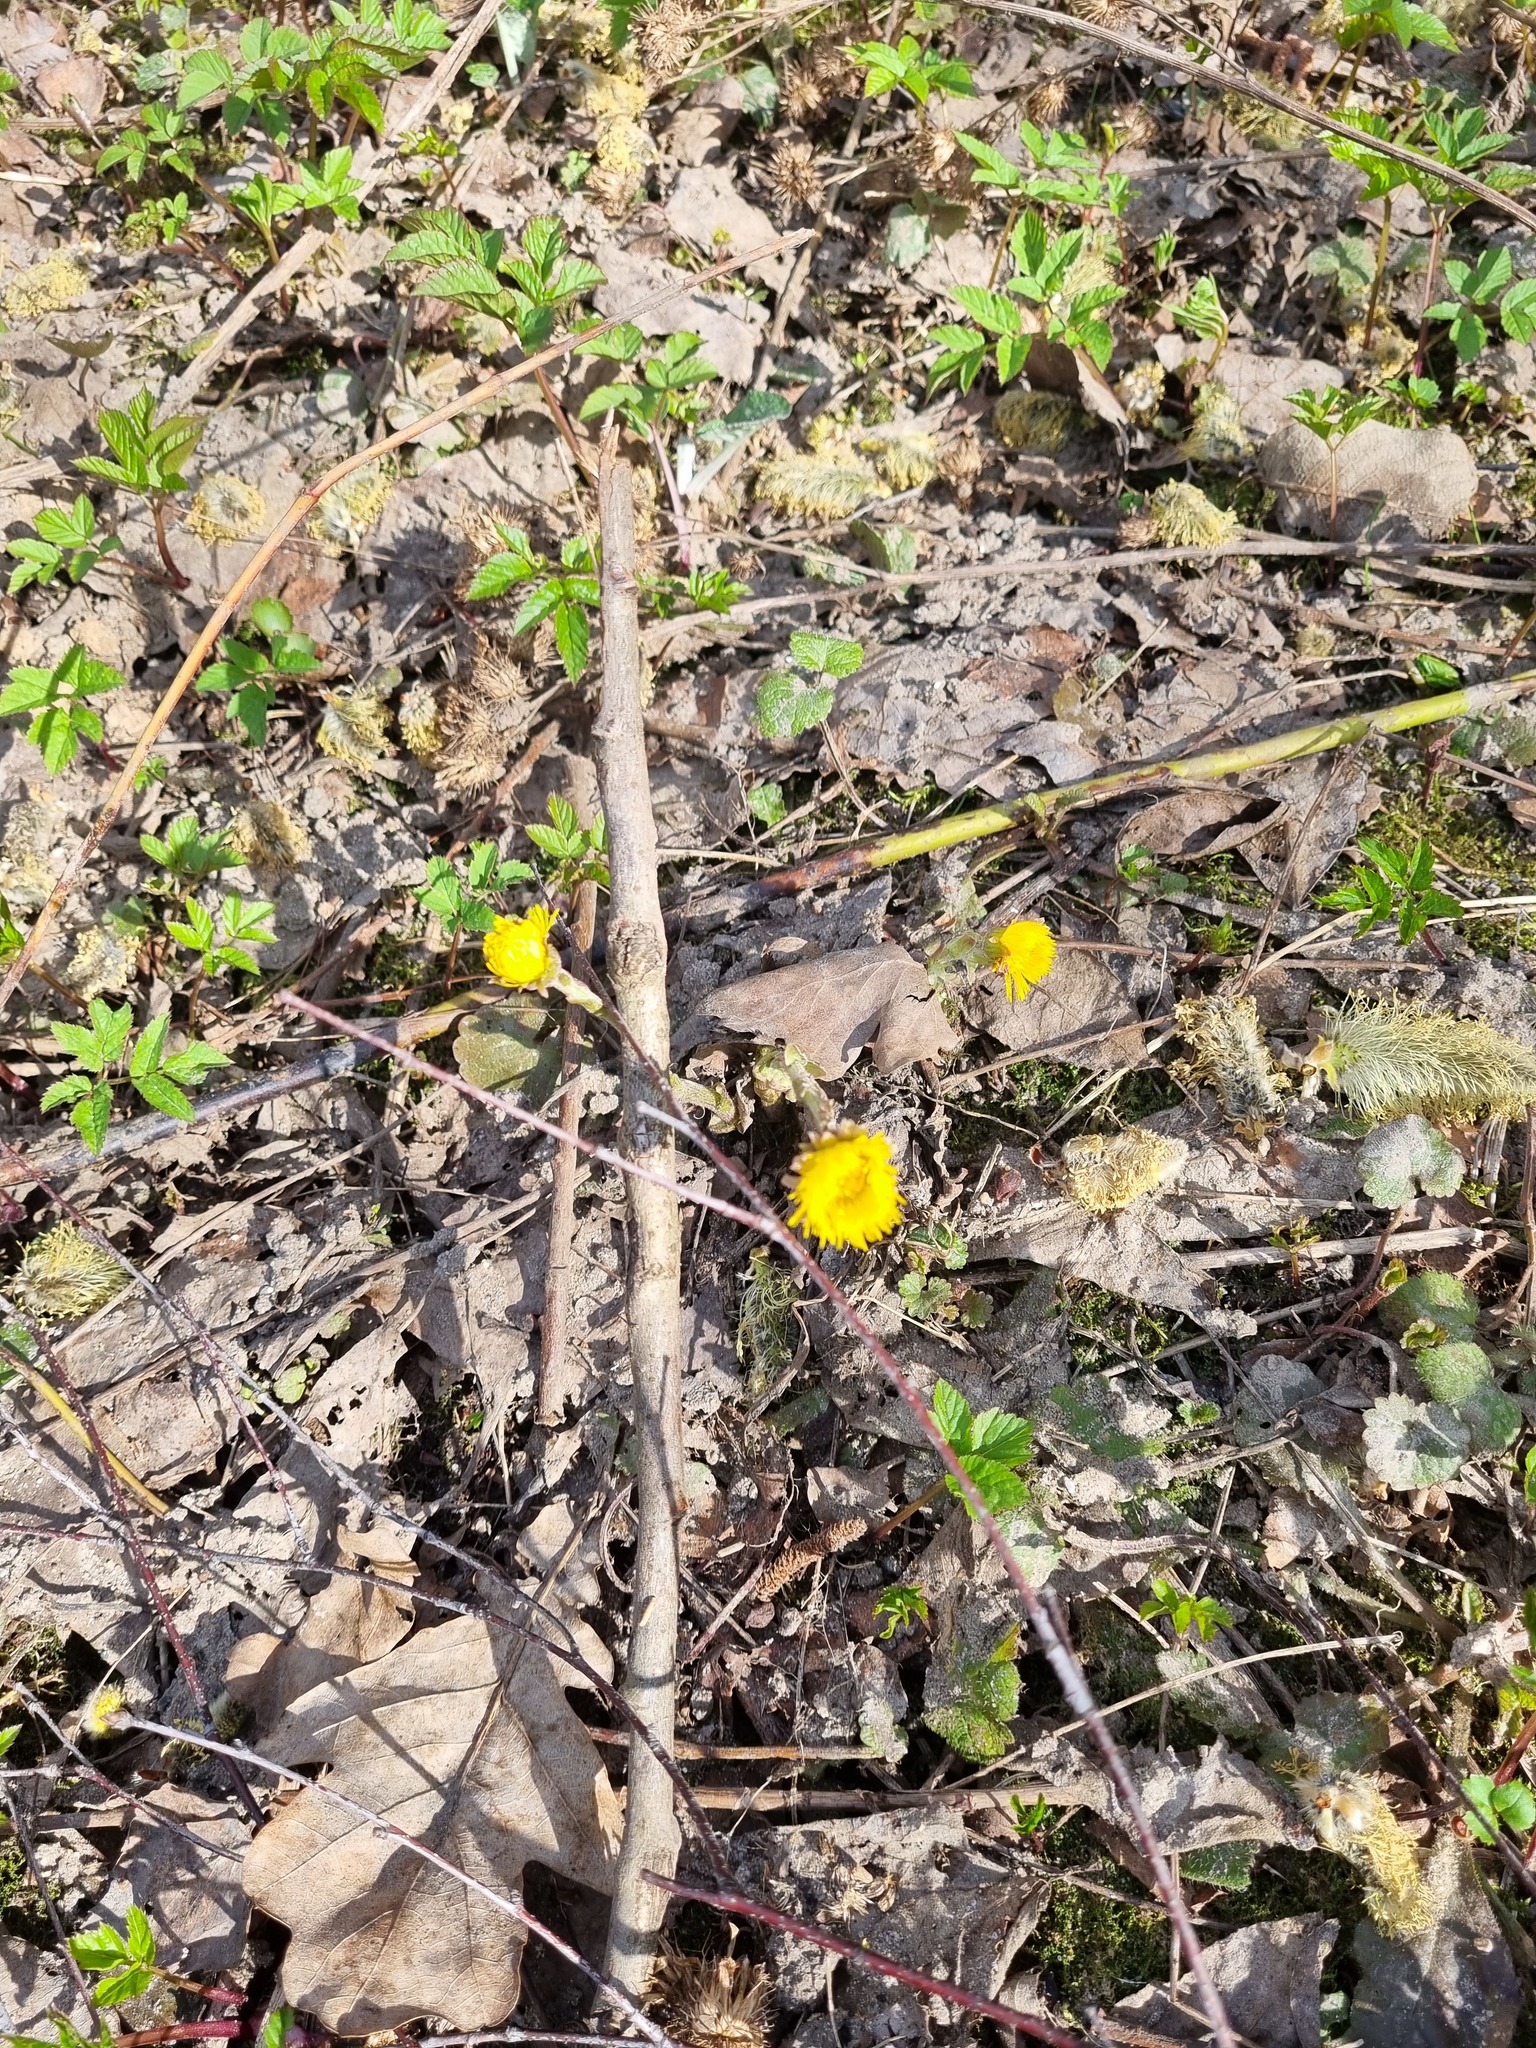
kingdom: Plantae
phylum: Tracheophyta
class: Magnoliopsida
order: Asterales
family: Asteraceae
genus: Tussilago
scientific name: Tussilago farfara
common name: Coltsfoot
